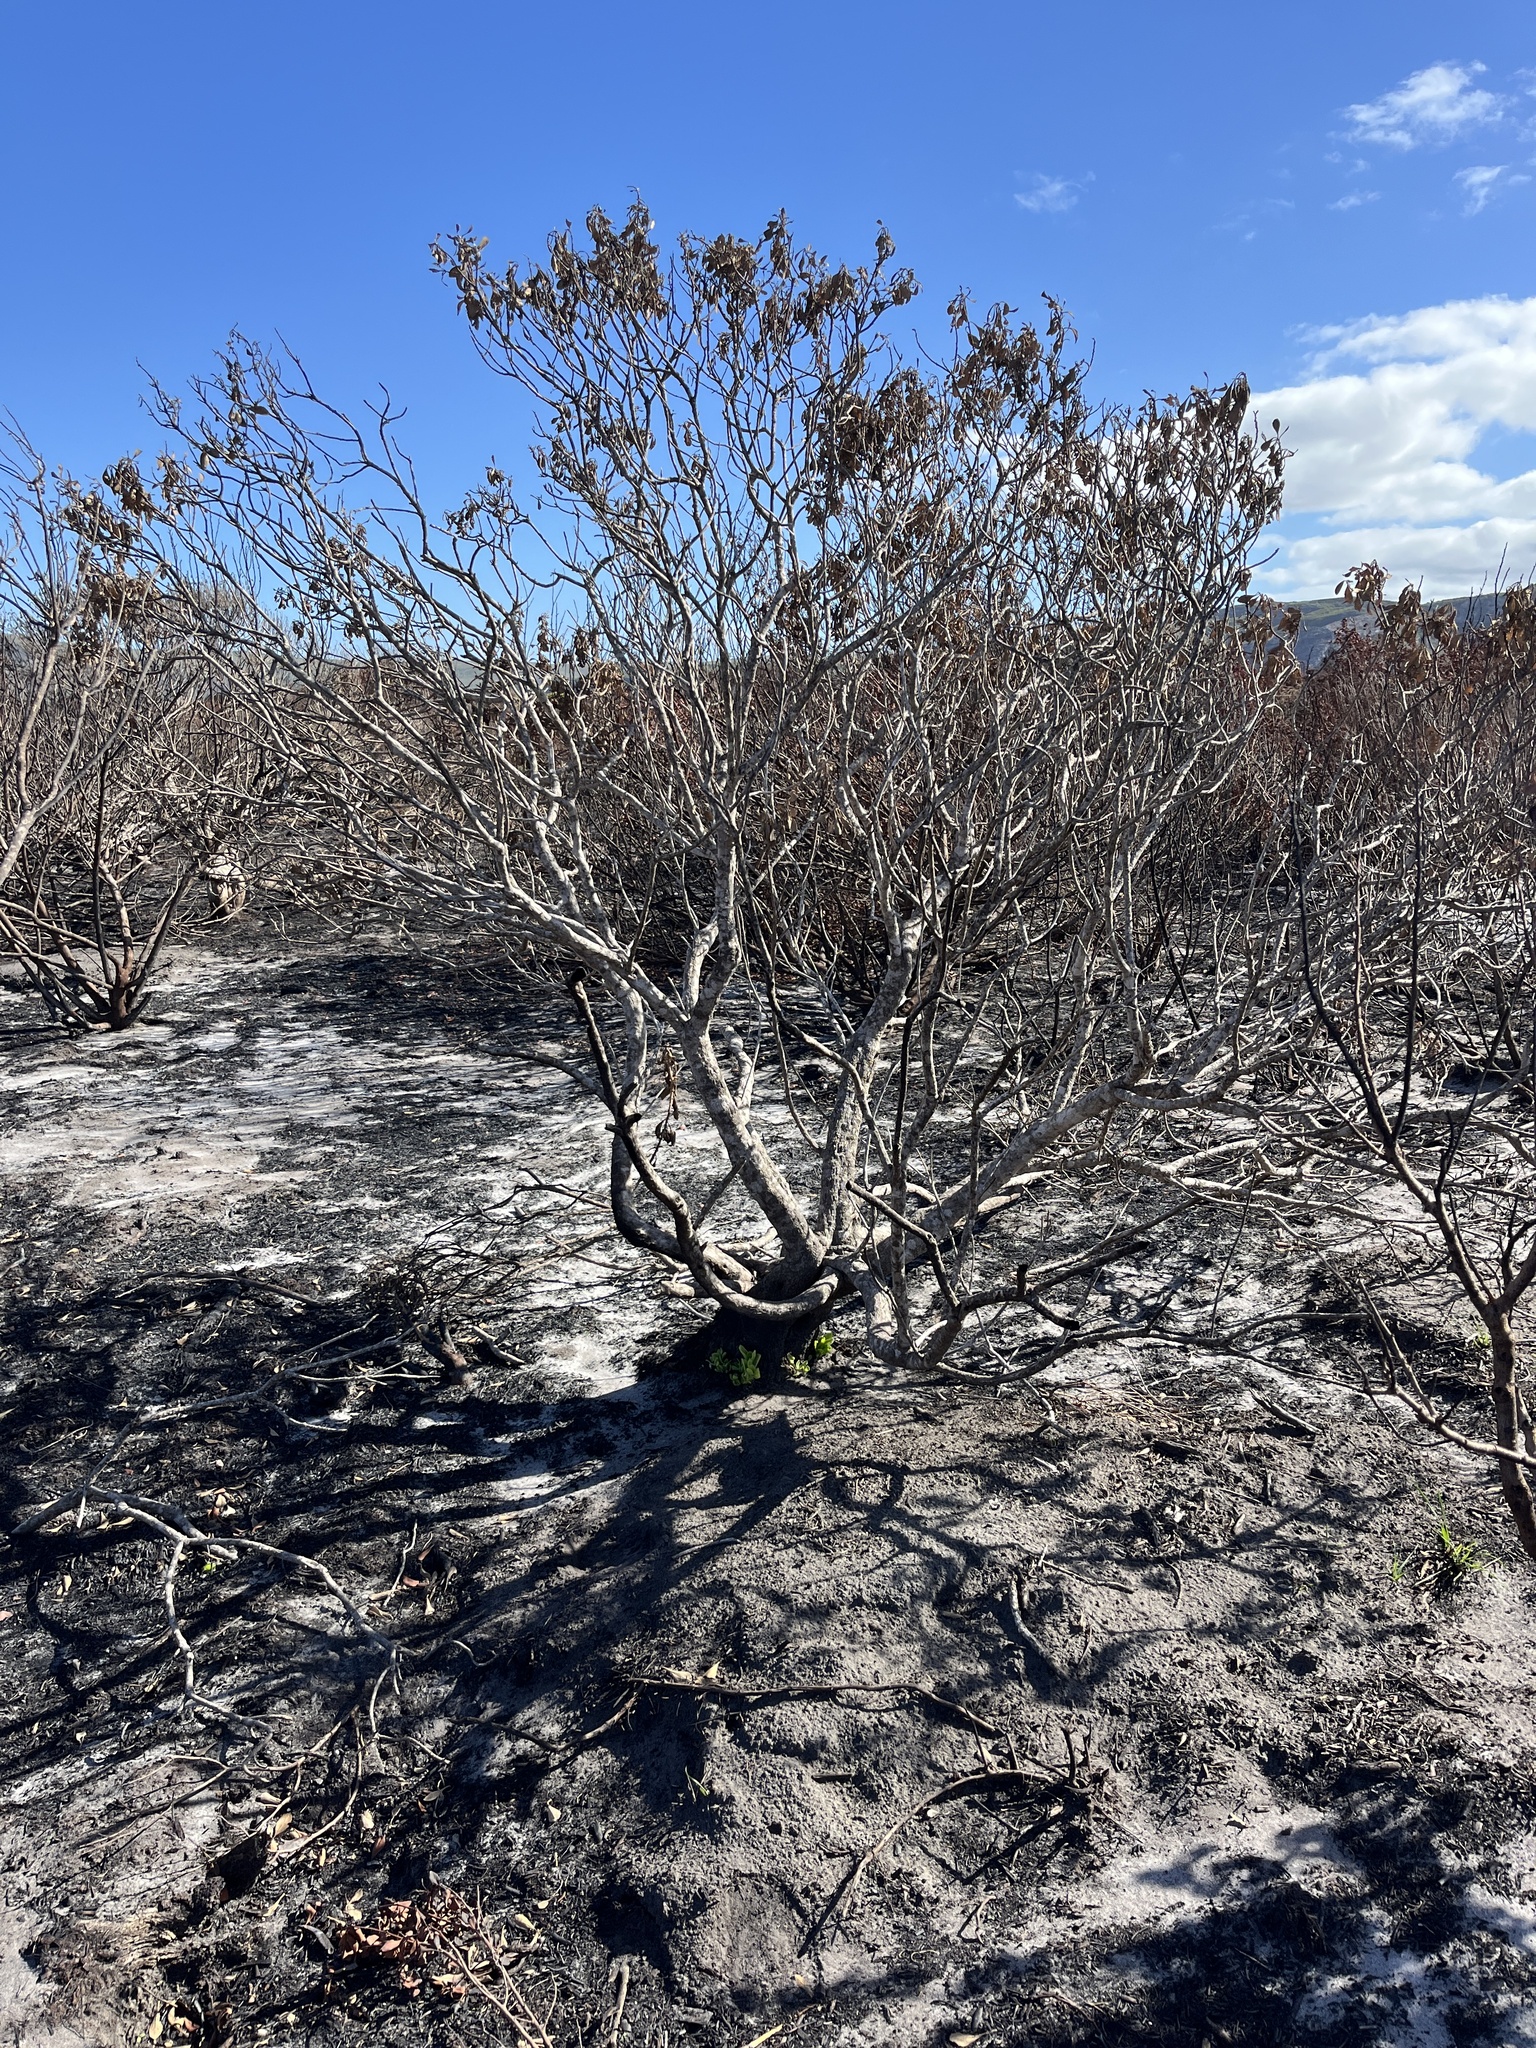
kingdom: Plantae
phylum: Tracheophyta
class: Magnoliopsida
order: Asterales
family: Asteraceae
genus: Osteospermum
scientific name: Osteospermum moniliferum
